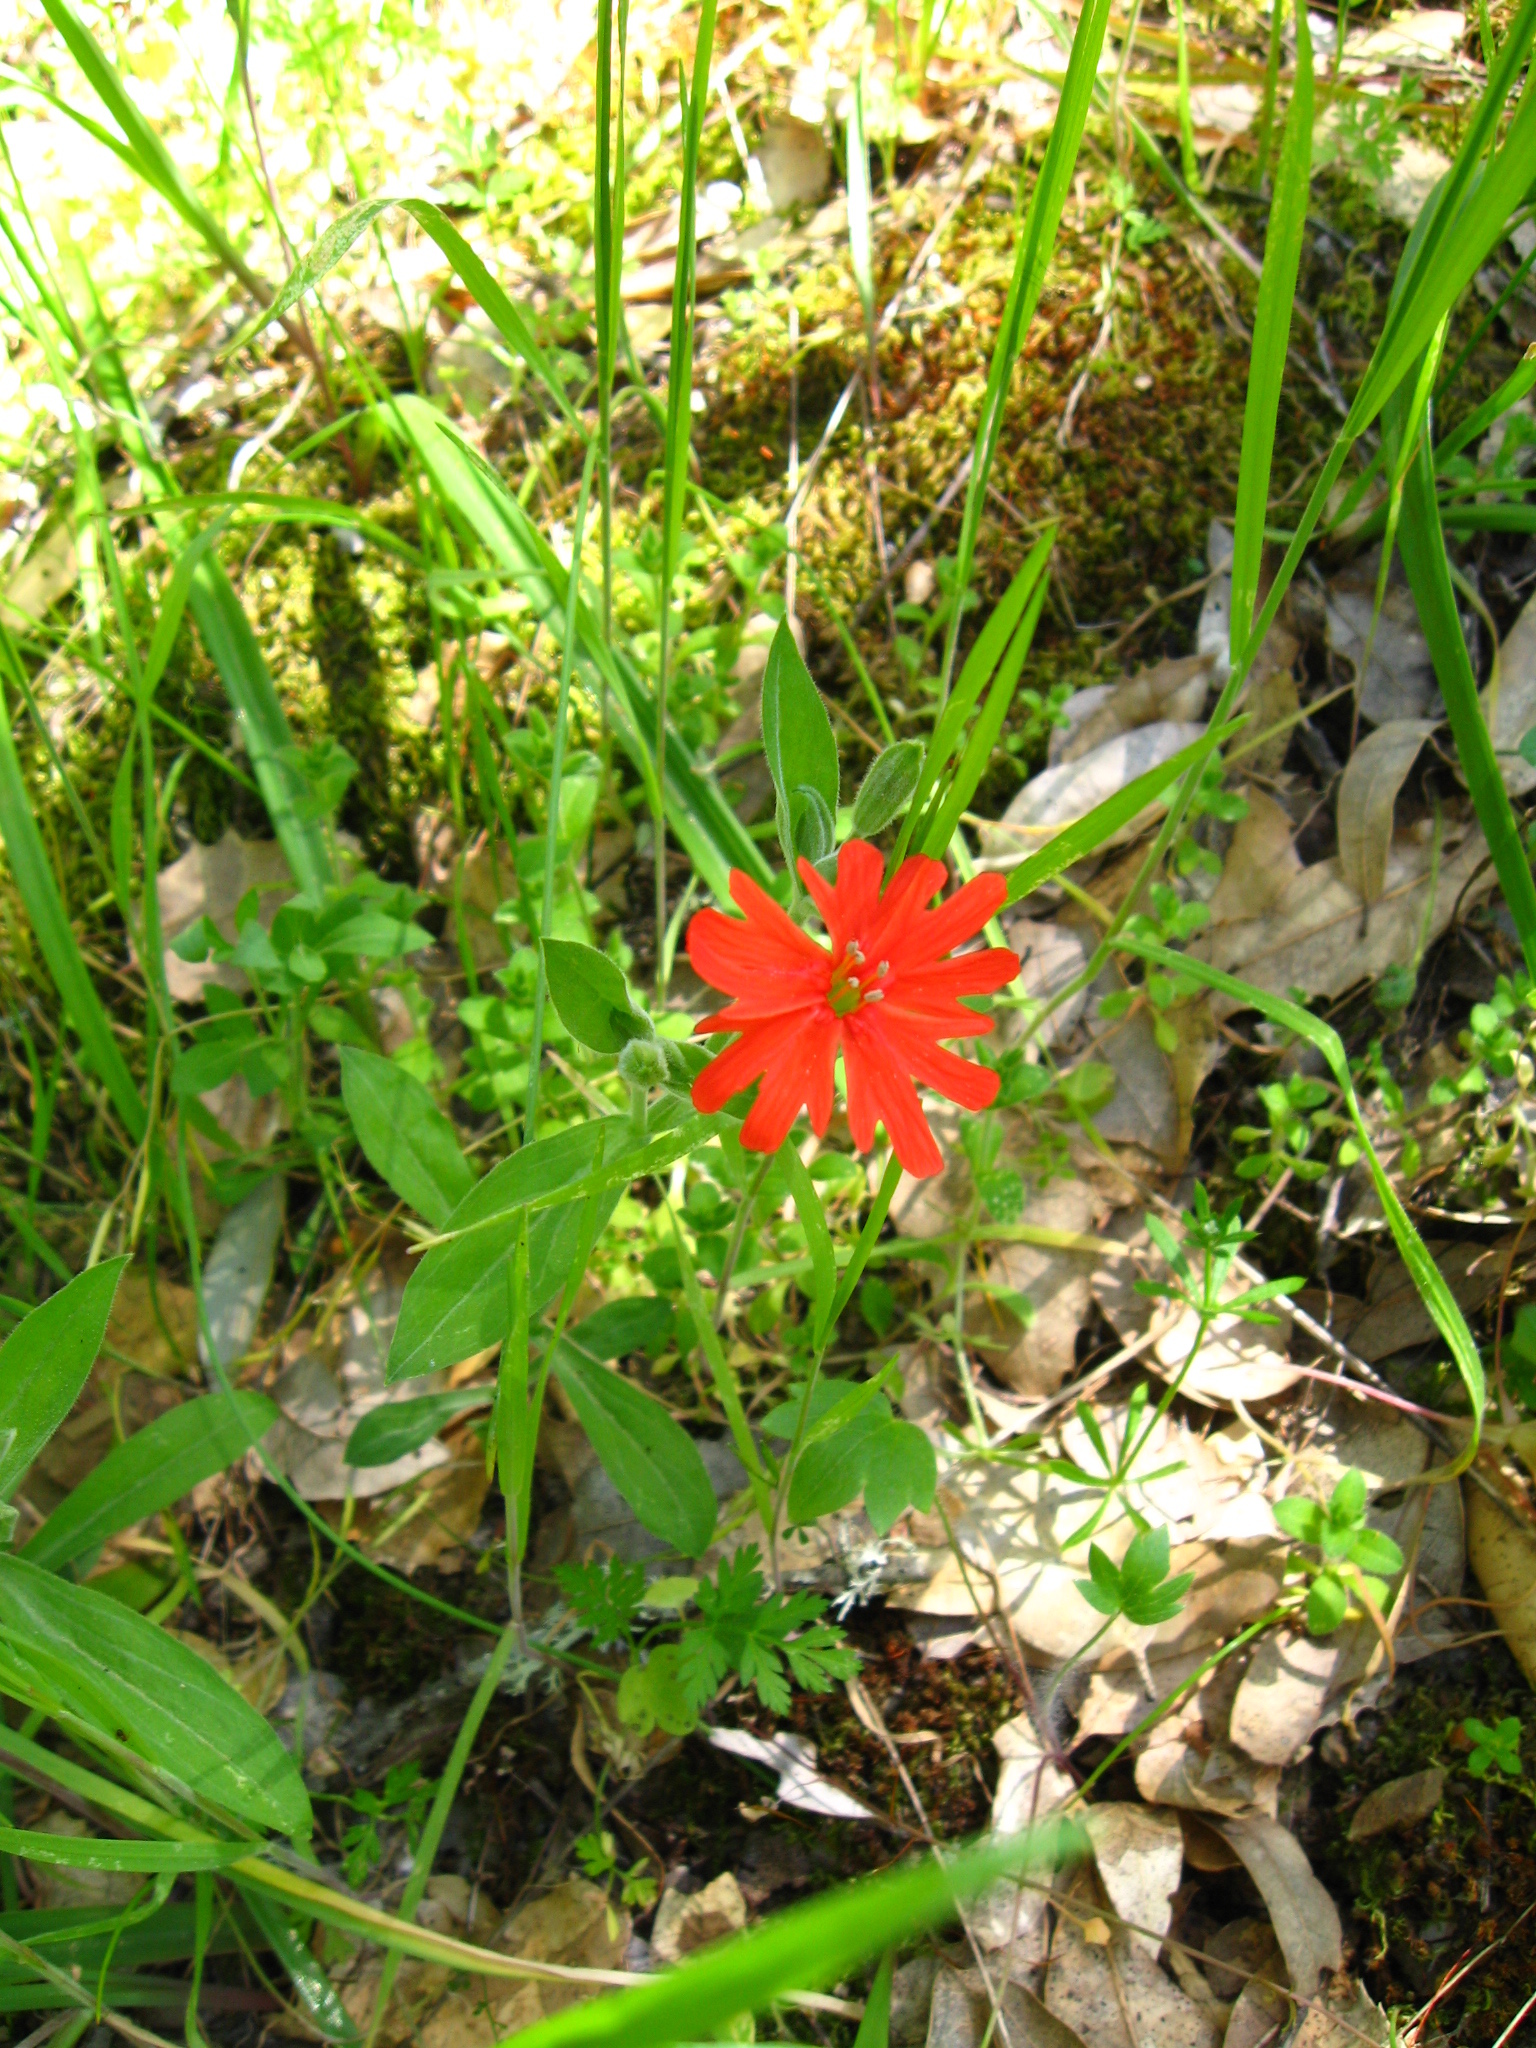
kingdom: Plantae
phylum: Tracheophyta
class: Magnoliopsida
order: Caryophyllales
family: Caryophyllaceae
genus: Silene
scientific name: Silene laciniata
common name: Indian-pink
